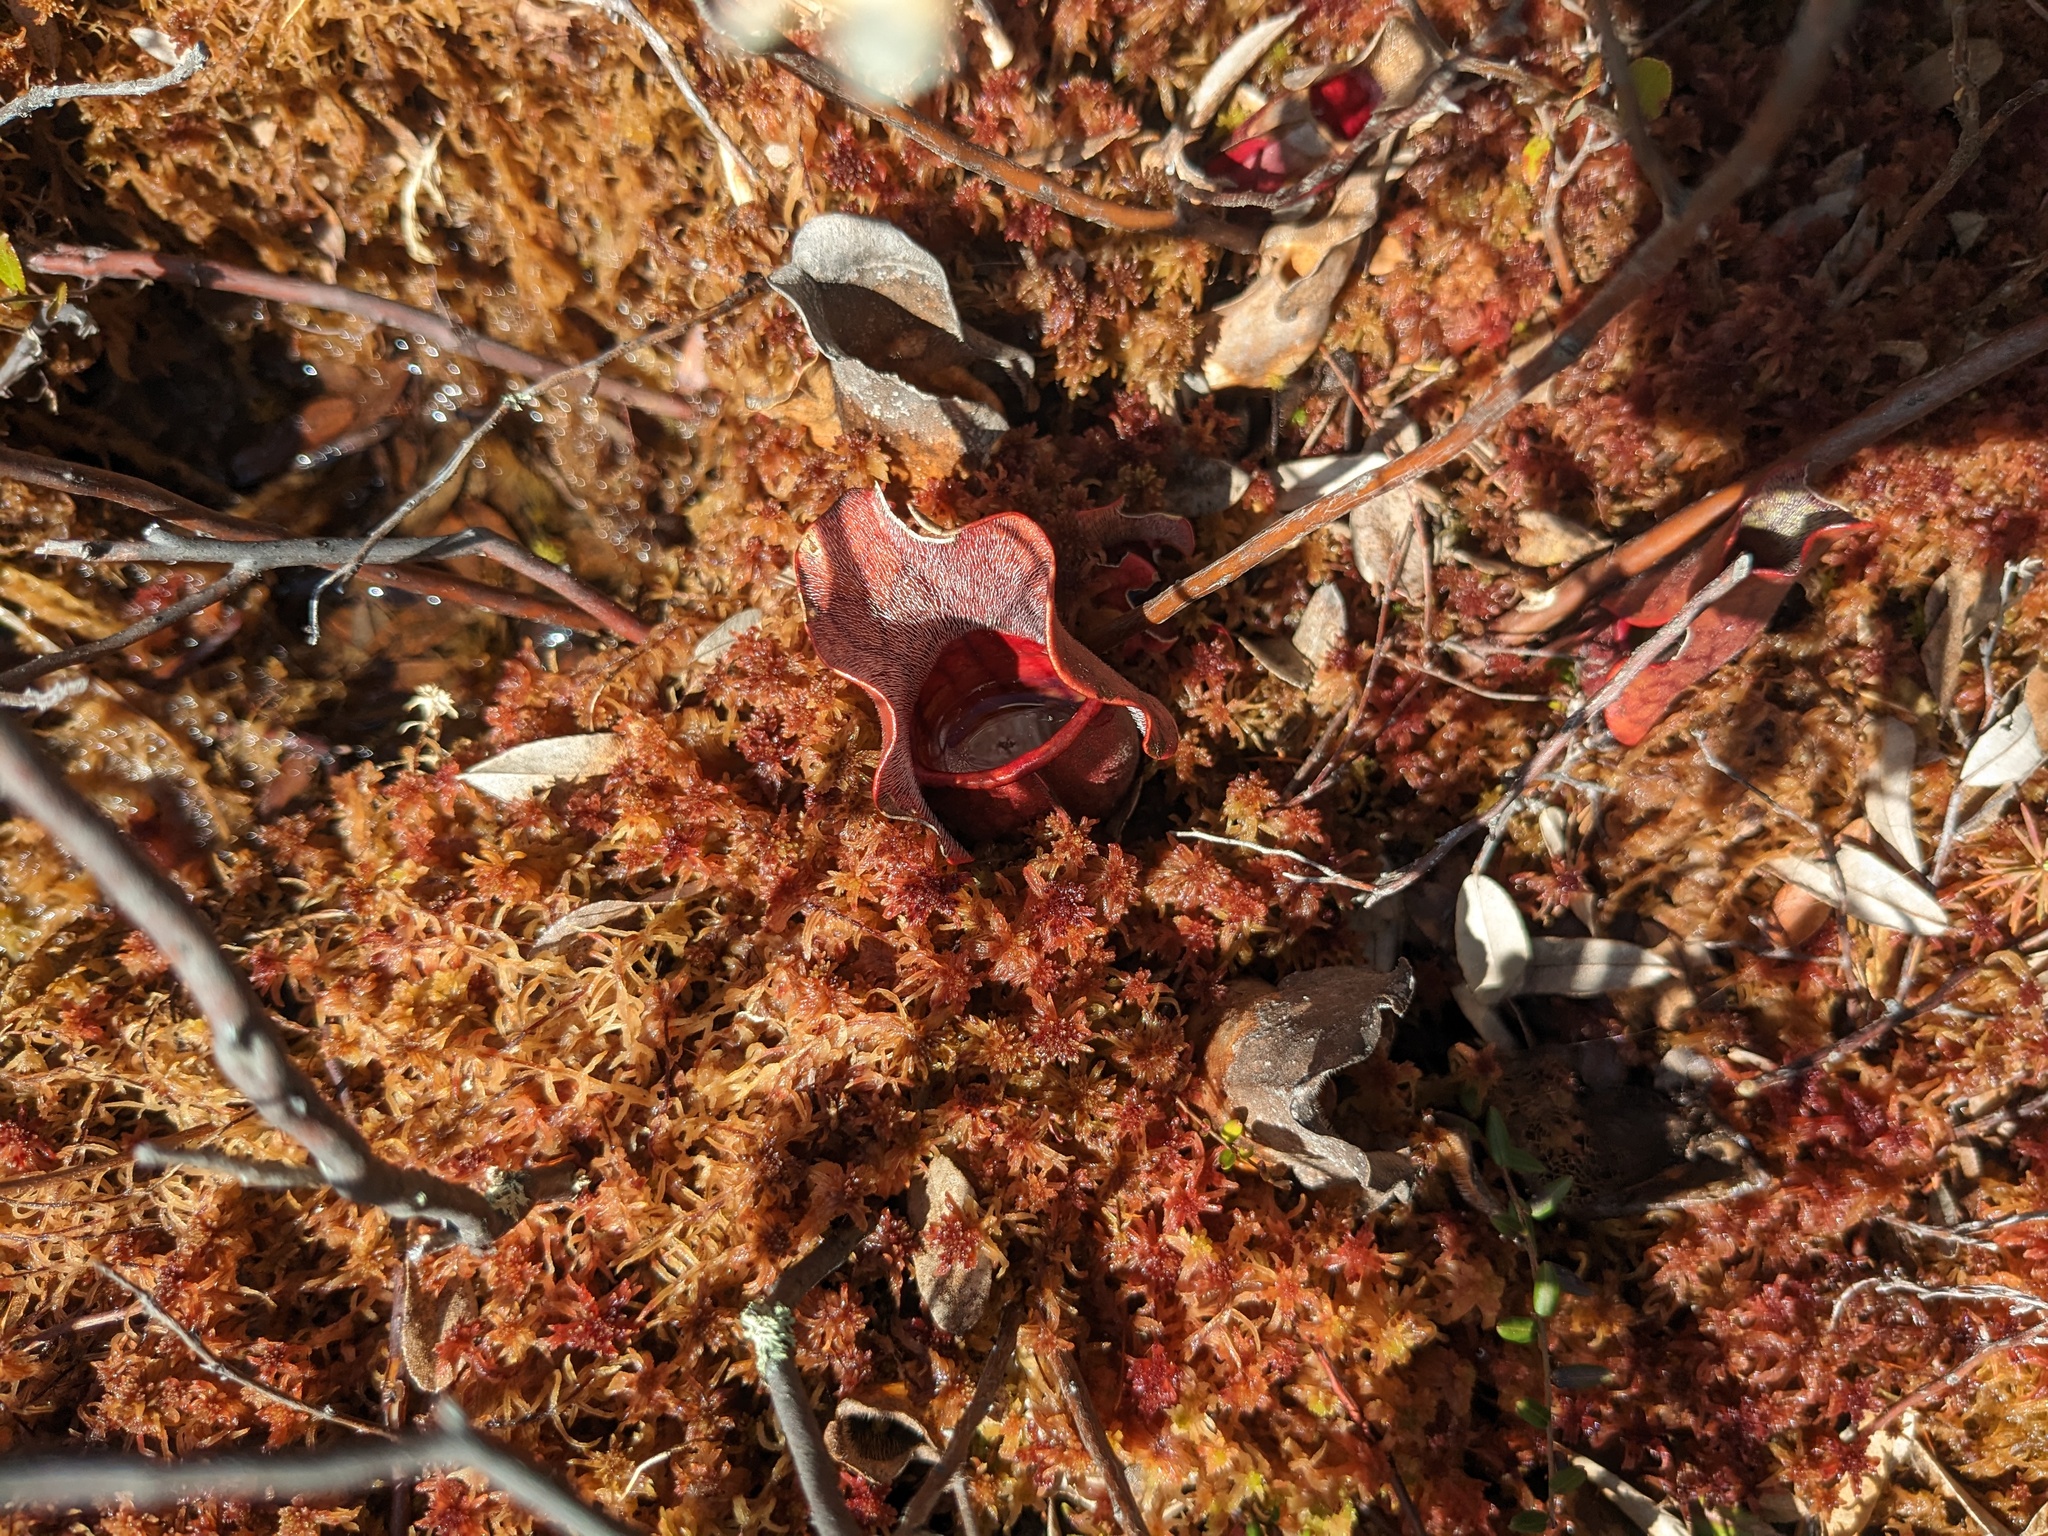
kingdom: Plantae
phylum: Tracheophyta
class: Magnoliopsida
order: Ericales
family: Sarraceniaceae
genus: Sarracenia
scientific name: Sarracenia purpurea
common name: Pitcherplant
